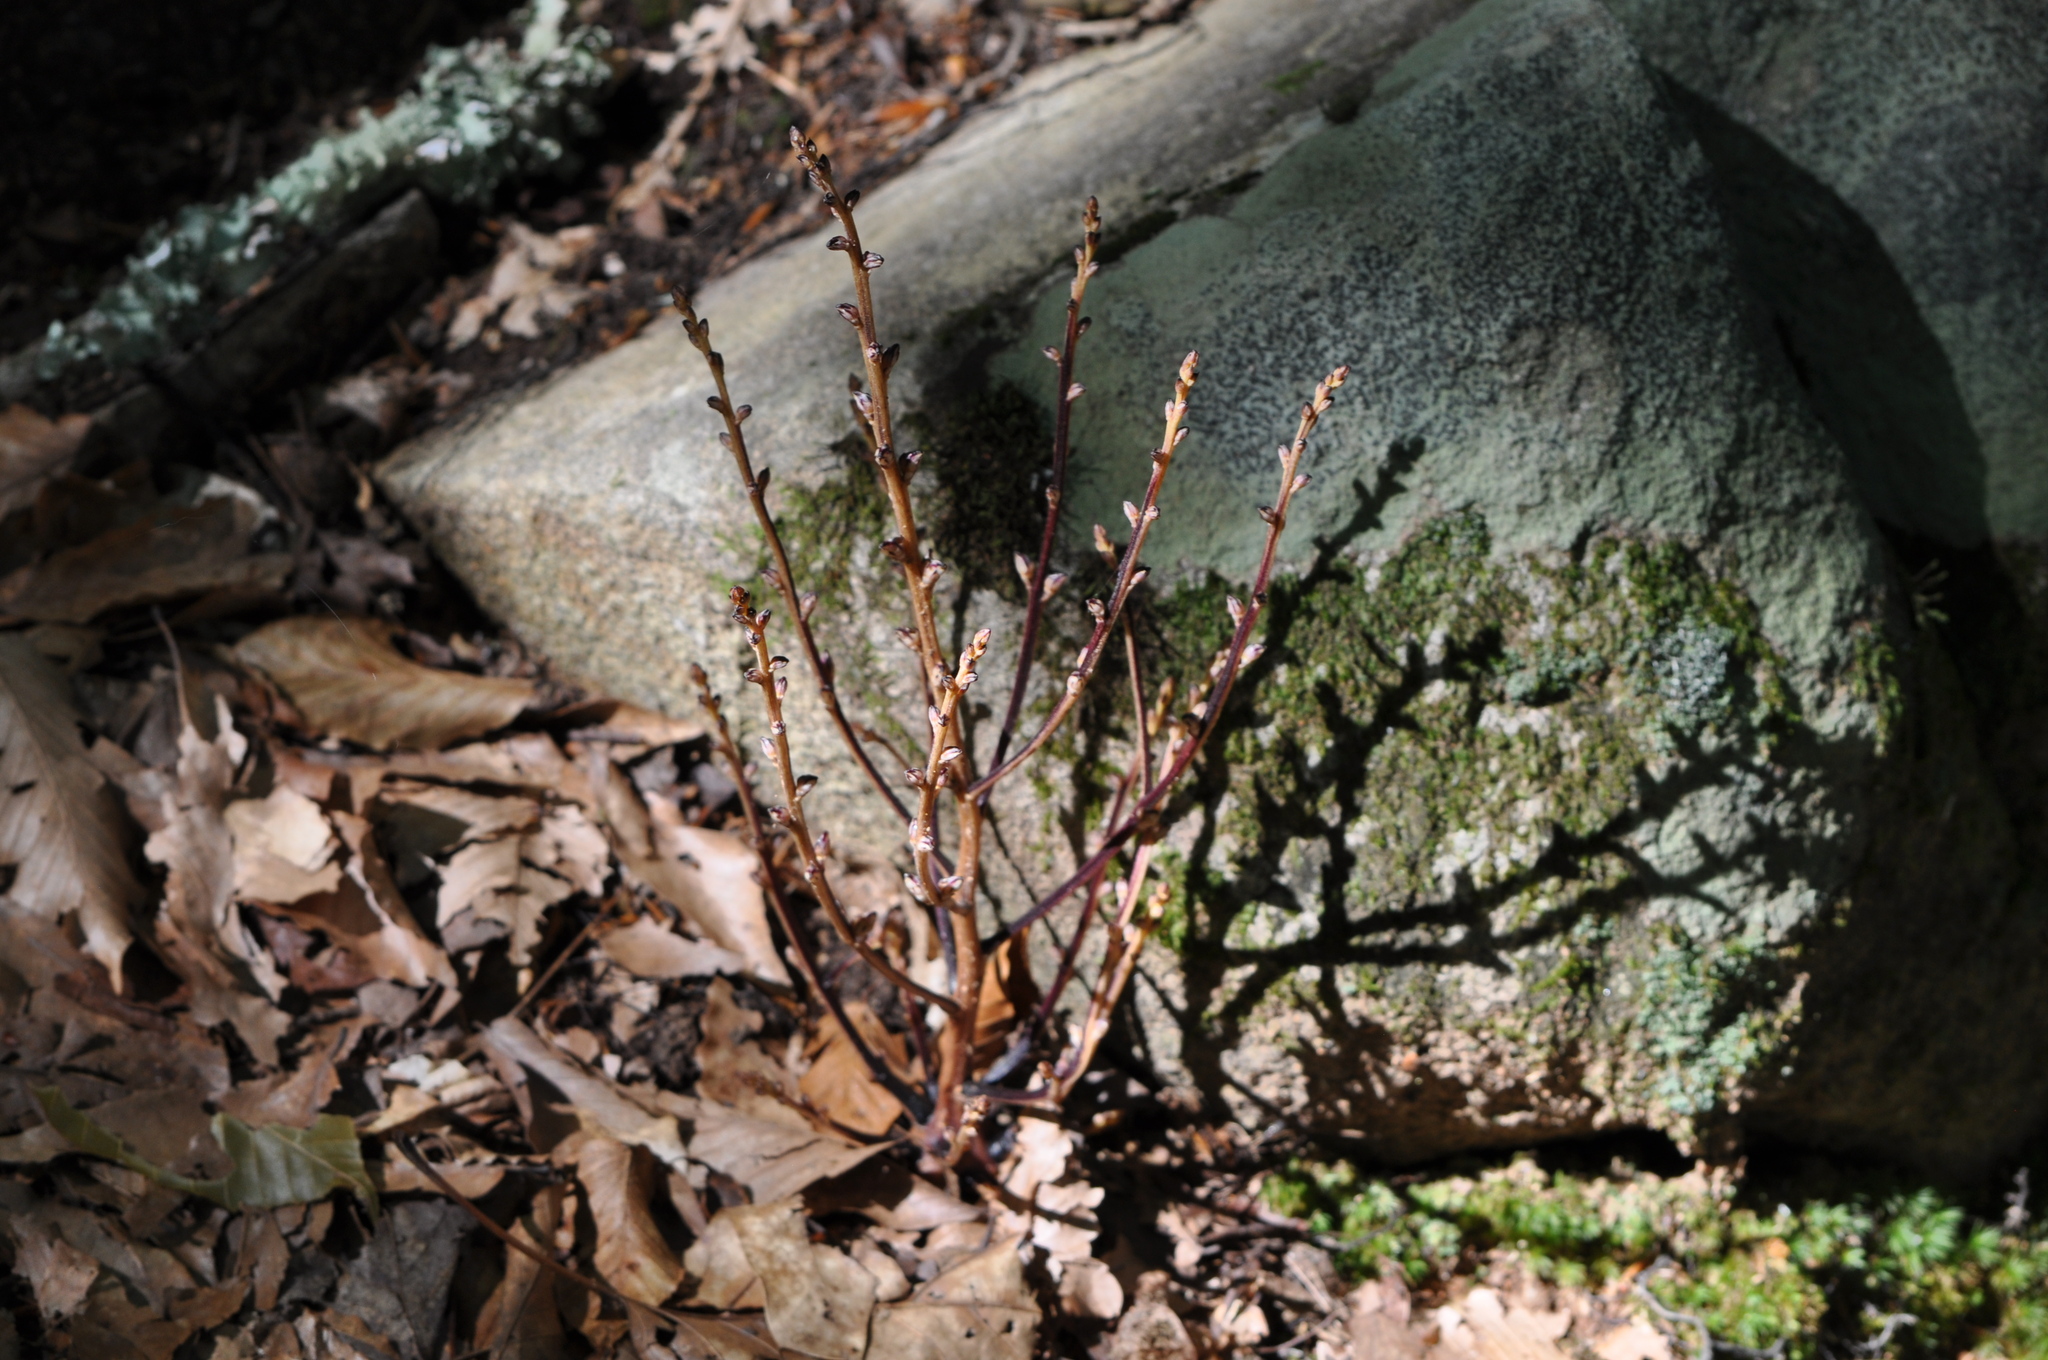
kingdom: Plantae
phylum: Tracheophyta
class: Magnoliopsida
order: Lamiales
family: Orobanchaceae
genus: Epifagus
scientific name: Epifagus virginiana
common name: Beechdrops
